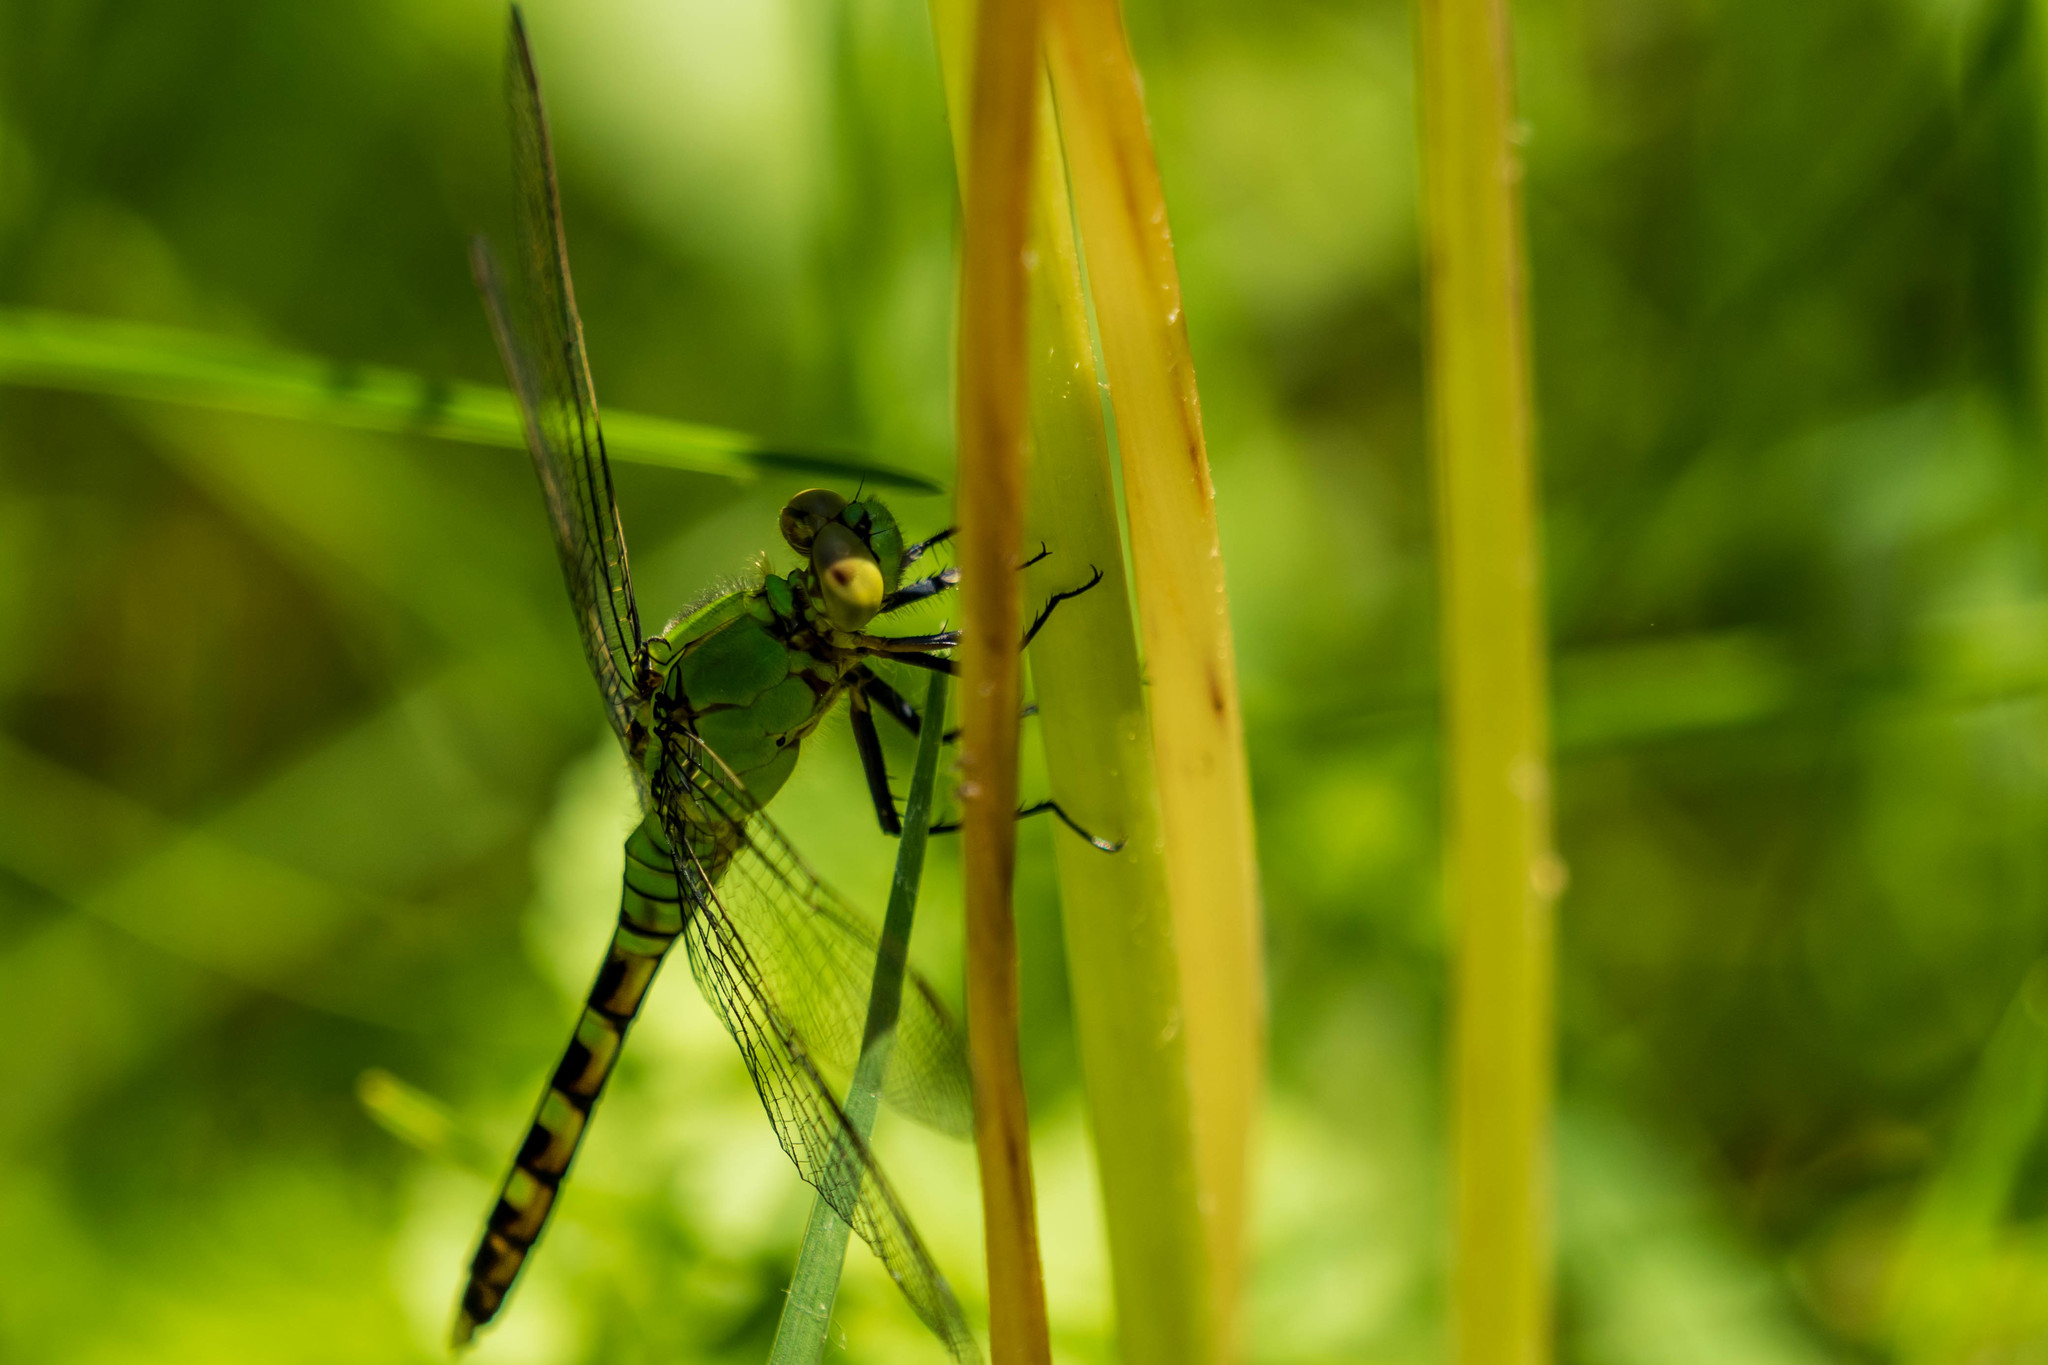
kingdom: Animalia
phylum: Arthropoda
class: Insecta
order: Odonata
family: Libellulidae
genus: Erythemis
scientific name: Erythemis simplicicollis
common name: Eastern pondhawk
